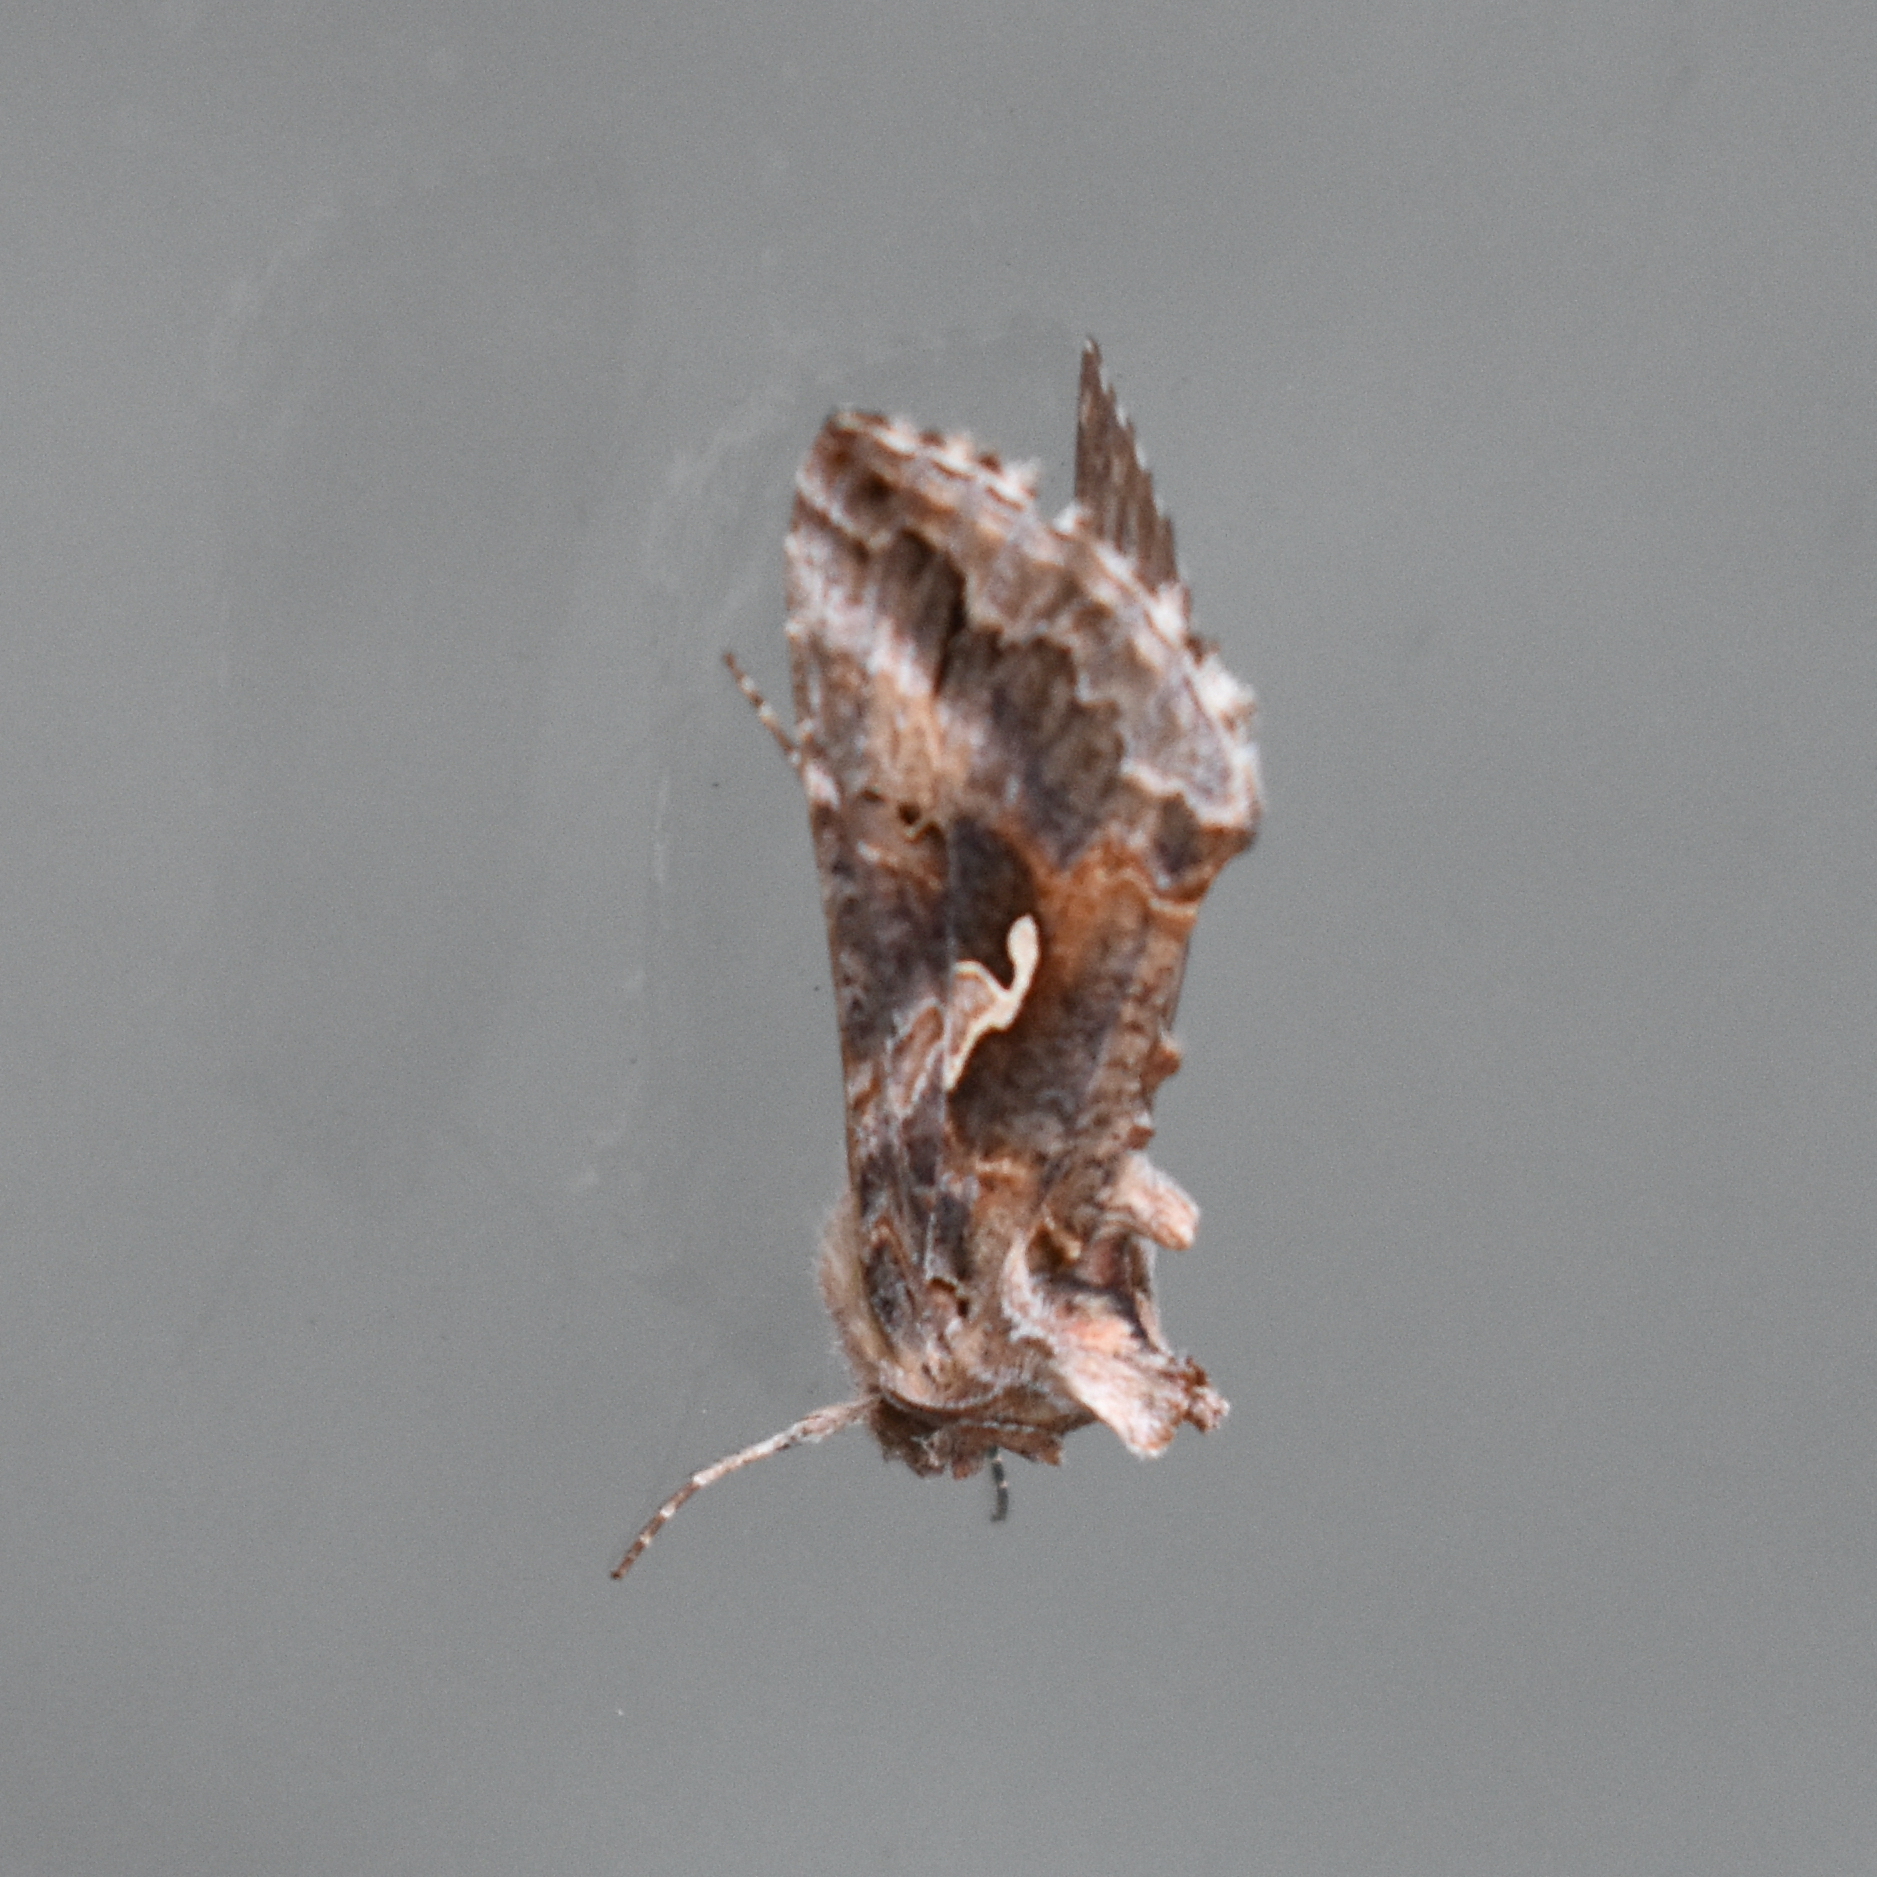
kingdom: Animalia
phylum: Arthropoda
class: Insecta
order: Lepidoptera
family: Noctuidae
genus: Autographa
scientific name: Autographa californica
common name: Alfalfa looper
